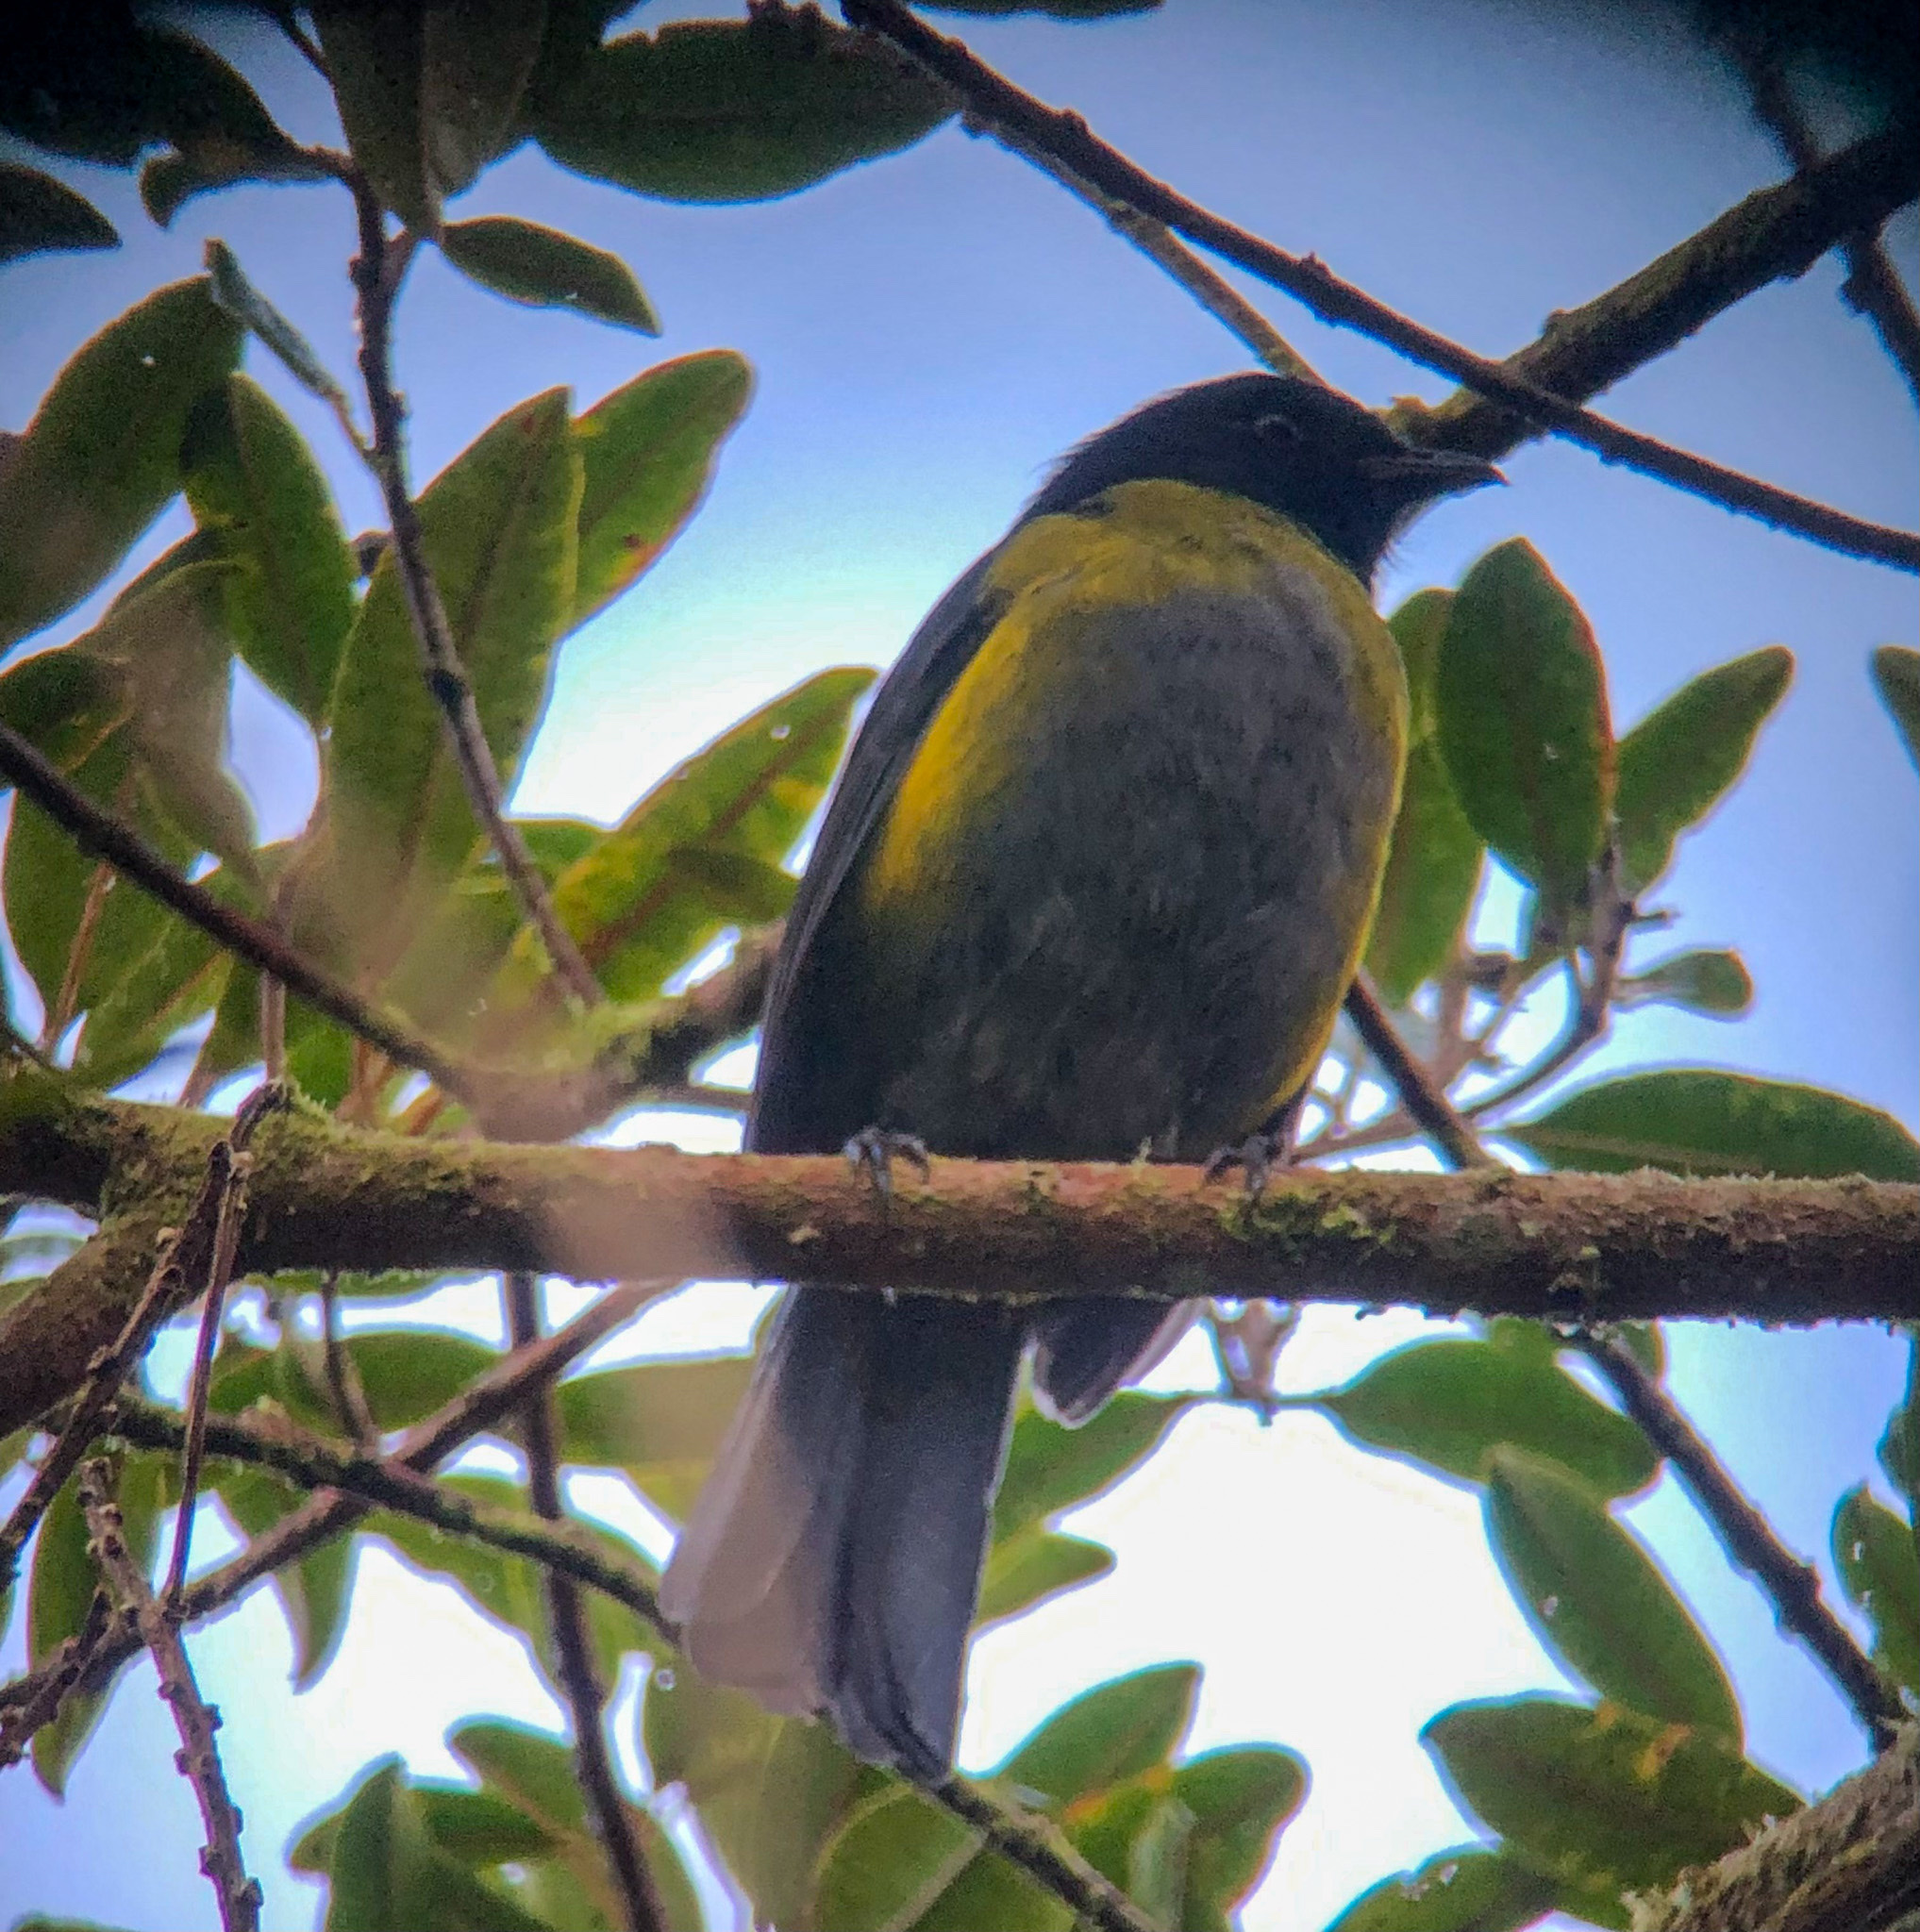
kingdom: Animalia
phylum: Chordata
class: Aves
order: Passeriformes
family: Ptilogonatidae
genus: Phainoptila
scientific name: Phainoptila melanoxantha
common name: Black-and-yellow phainoptila
